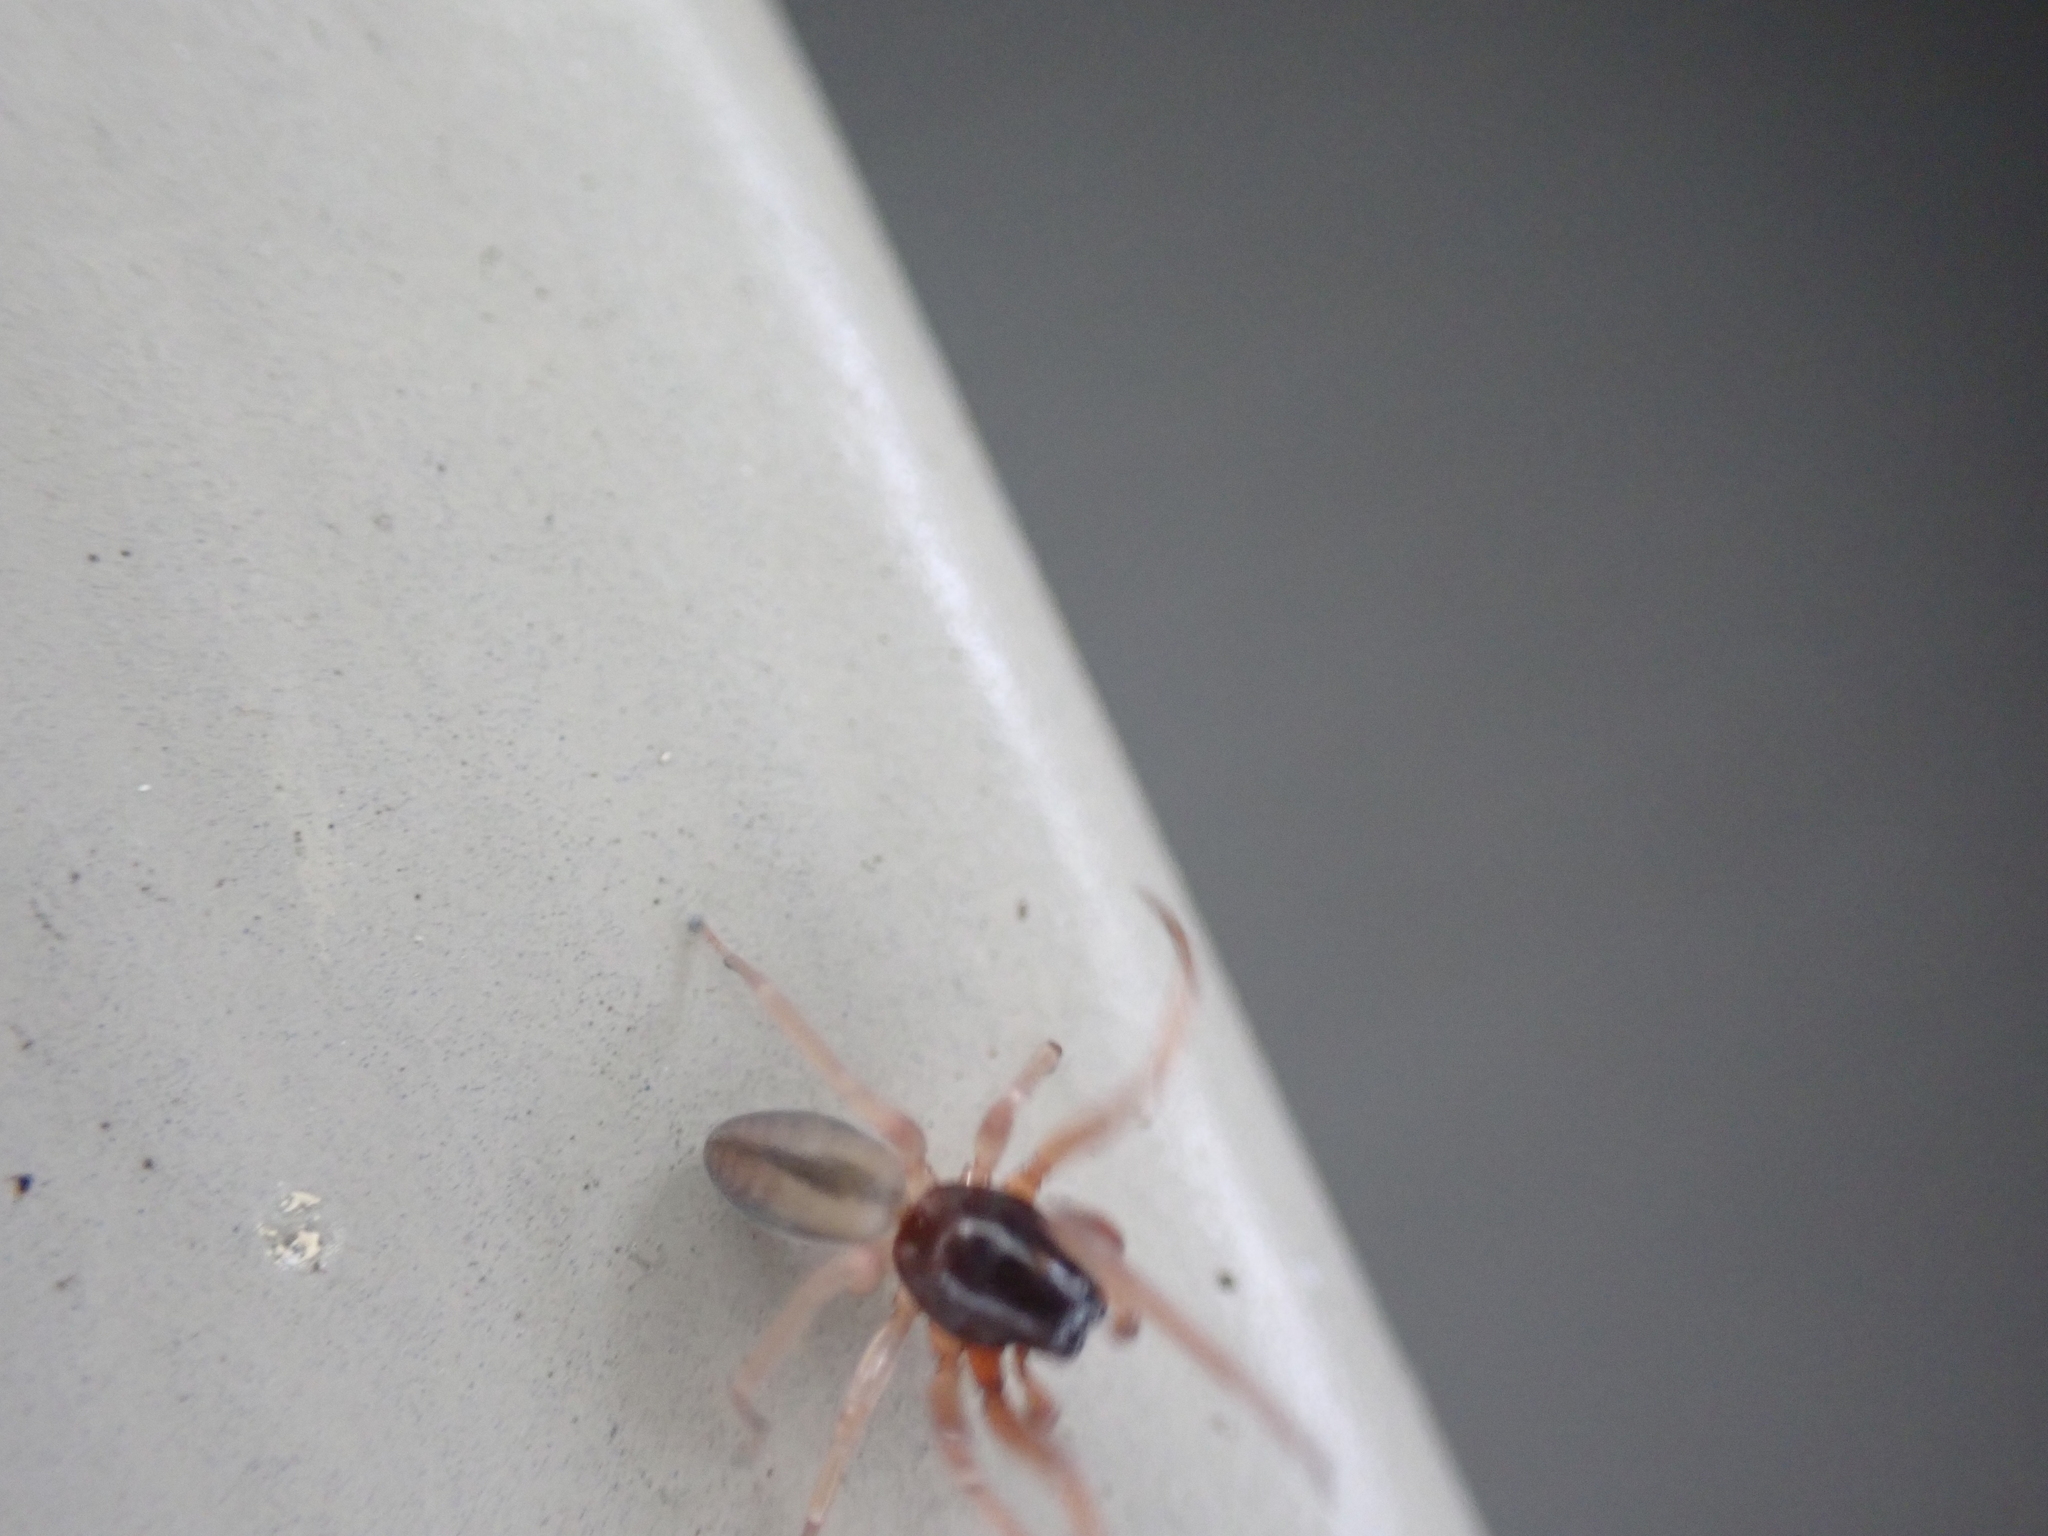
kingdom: Animalia
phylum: Arthropoda
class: Arachnida
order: Araneae
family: Trachelidae
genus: Meriola
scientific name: Meriola decepta
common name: Corinnid sac spiders
